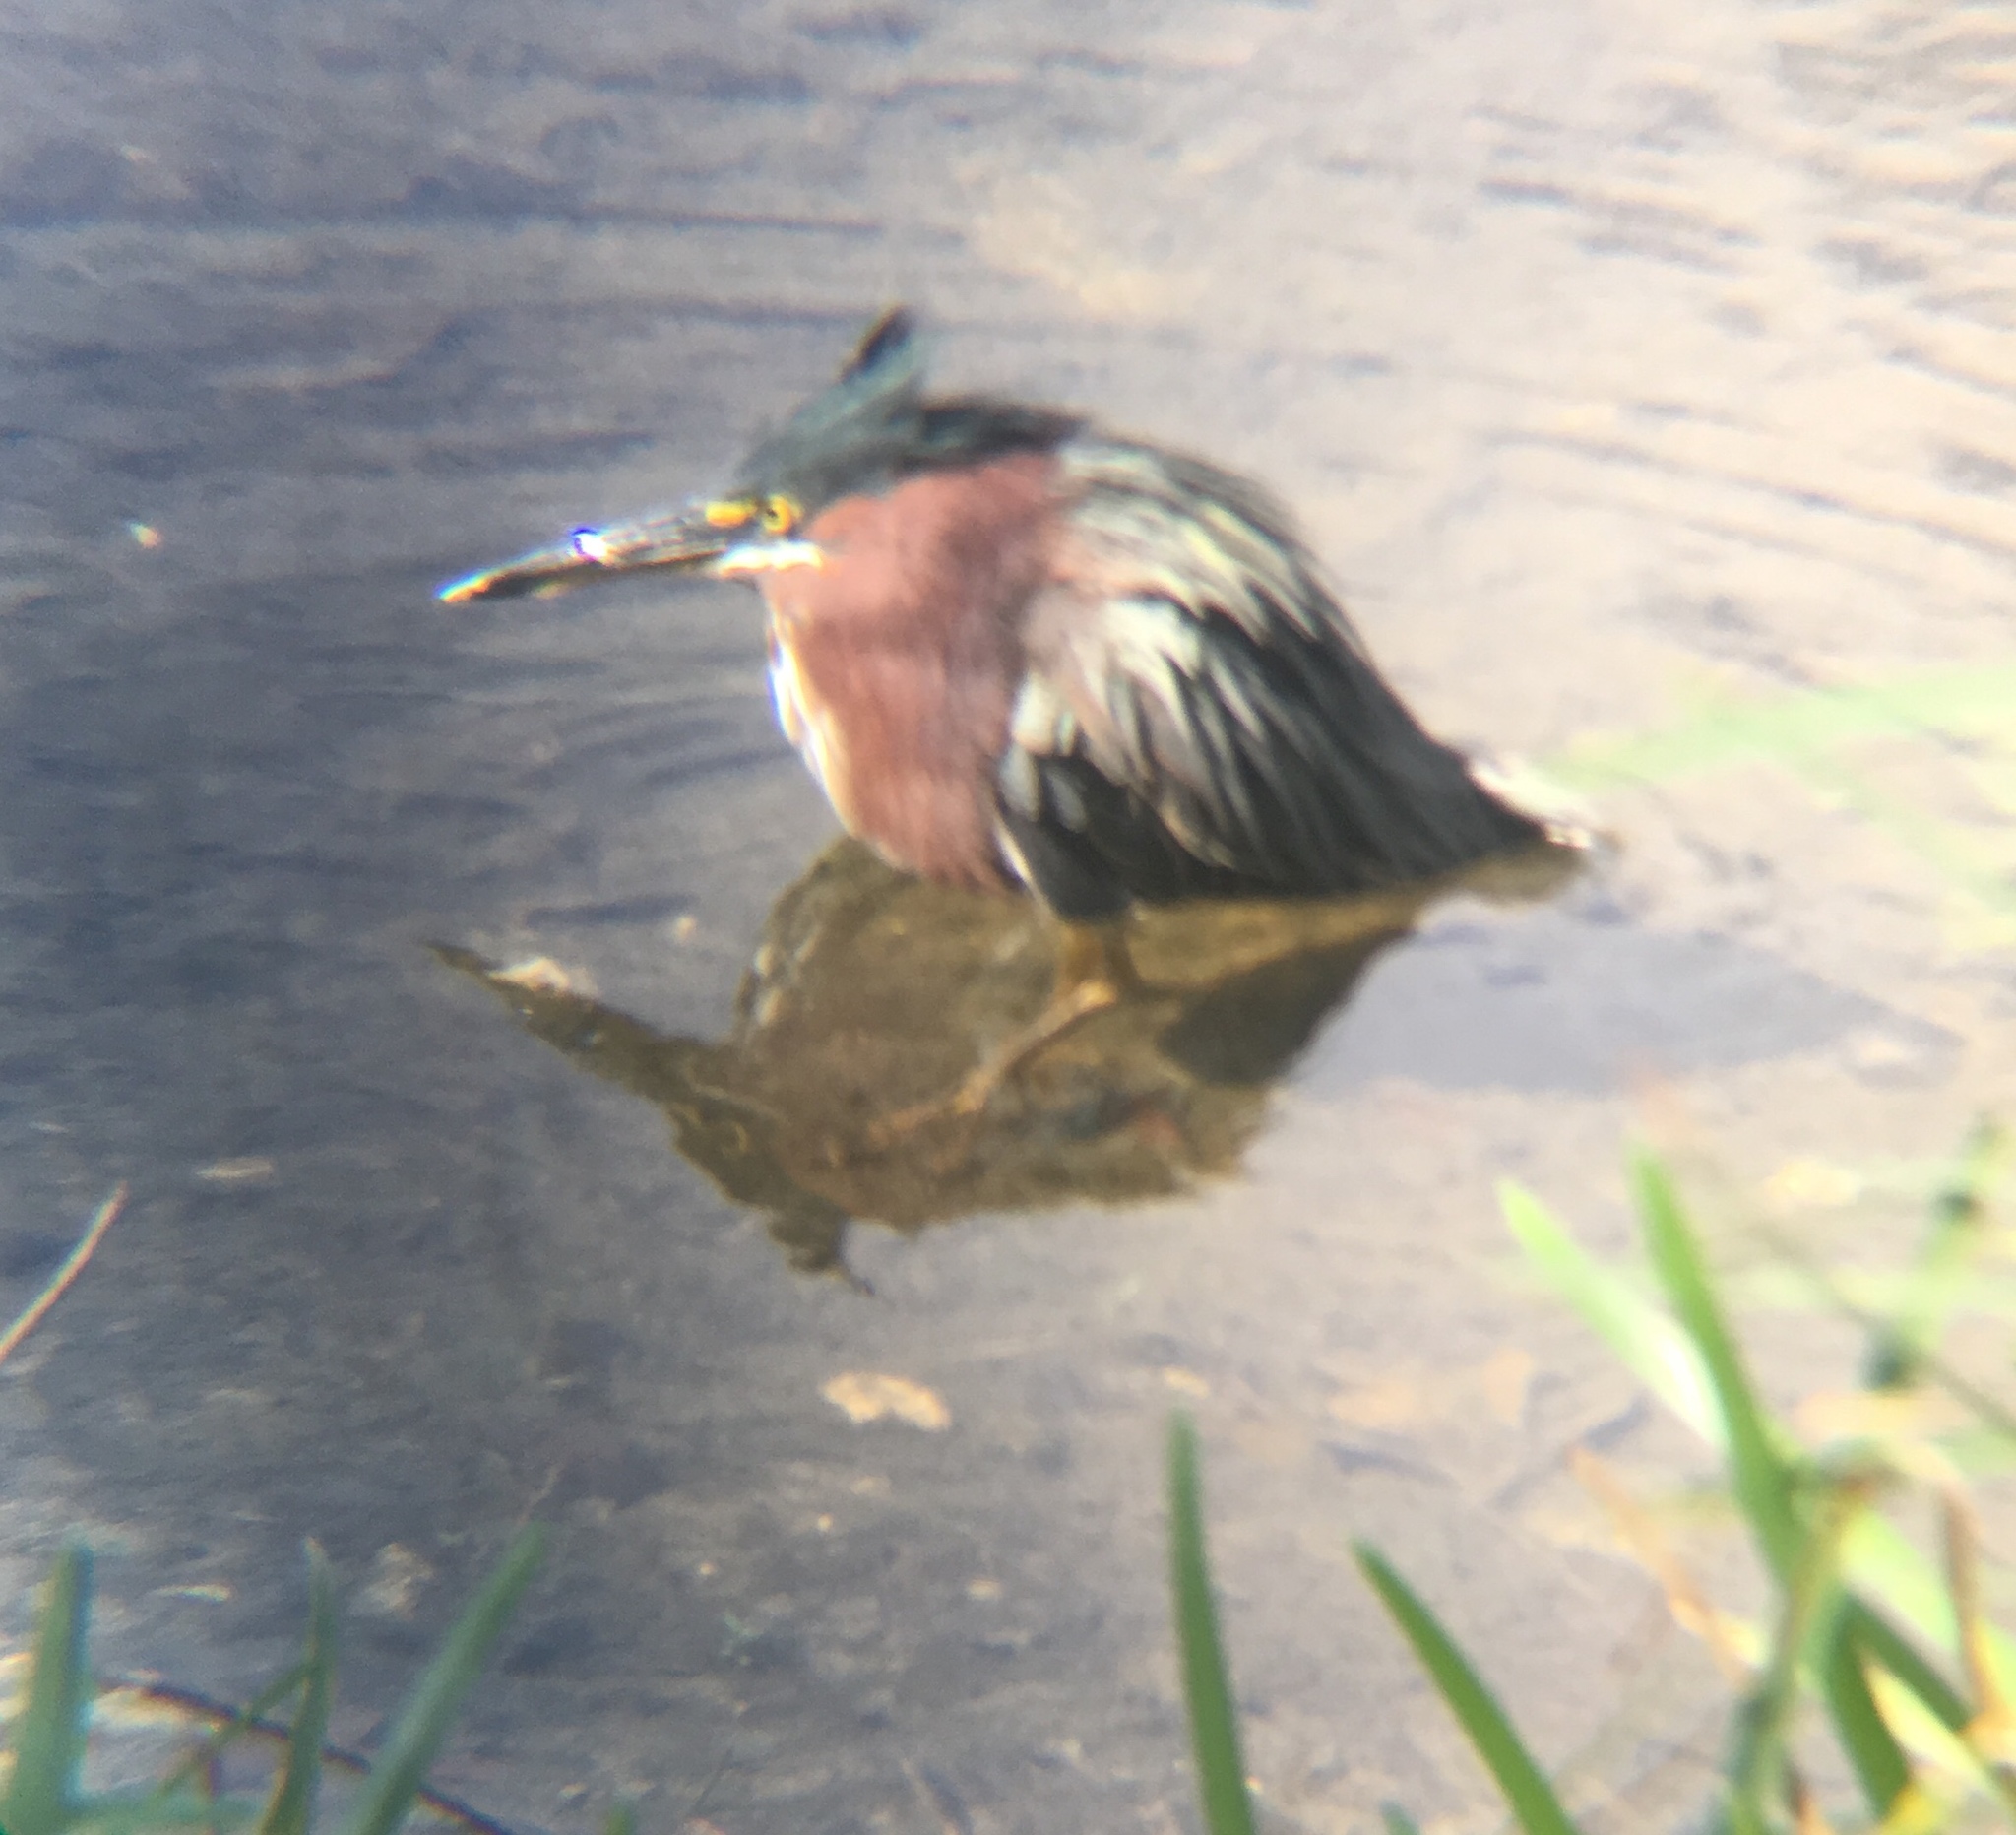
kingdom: Animalia
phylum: Chordata
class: Aves
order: Pelecaniformes
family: Ardeidae
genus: Butorides
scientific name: Butorides virescens
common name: Green heron
